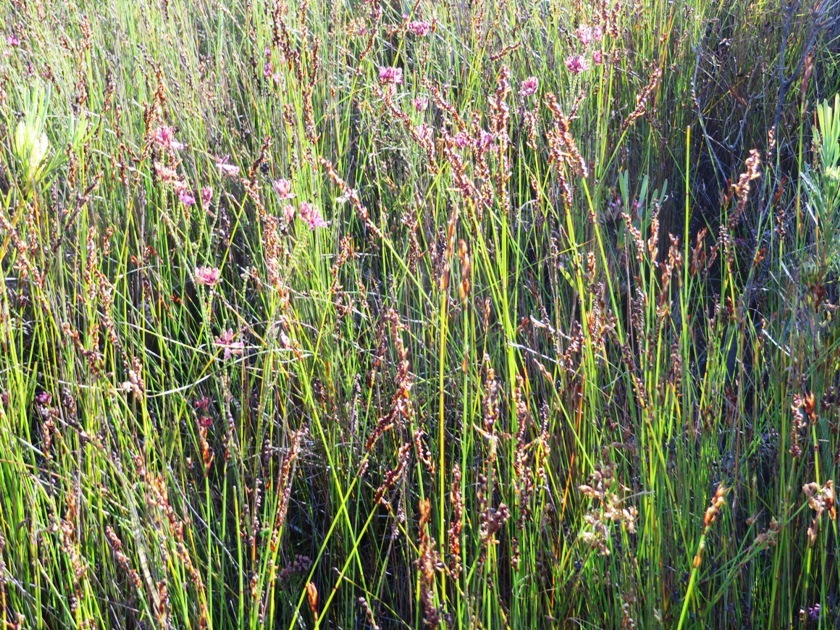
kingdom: Plantae
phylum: Tracheophyta
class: Magnoliopsida
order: Ericales
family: Ericaceae
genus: Erica
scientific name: Erica cristata
